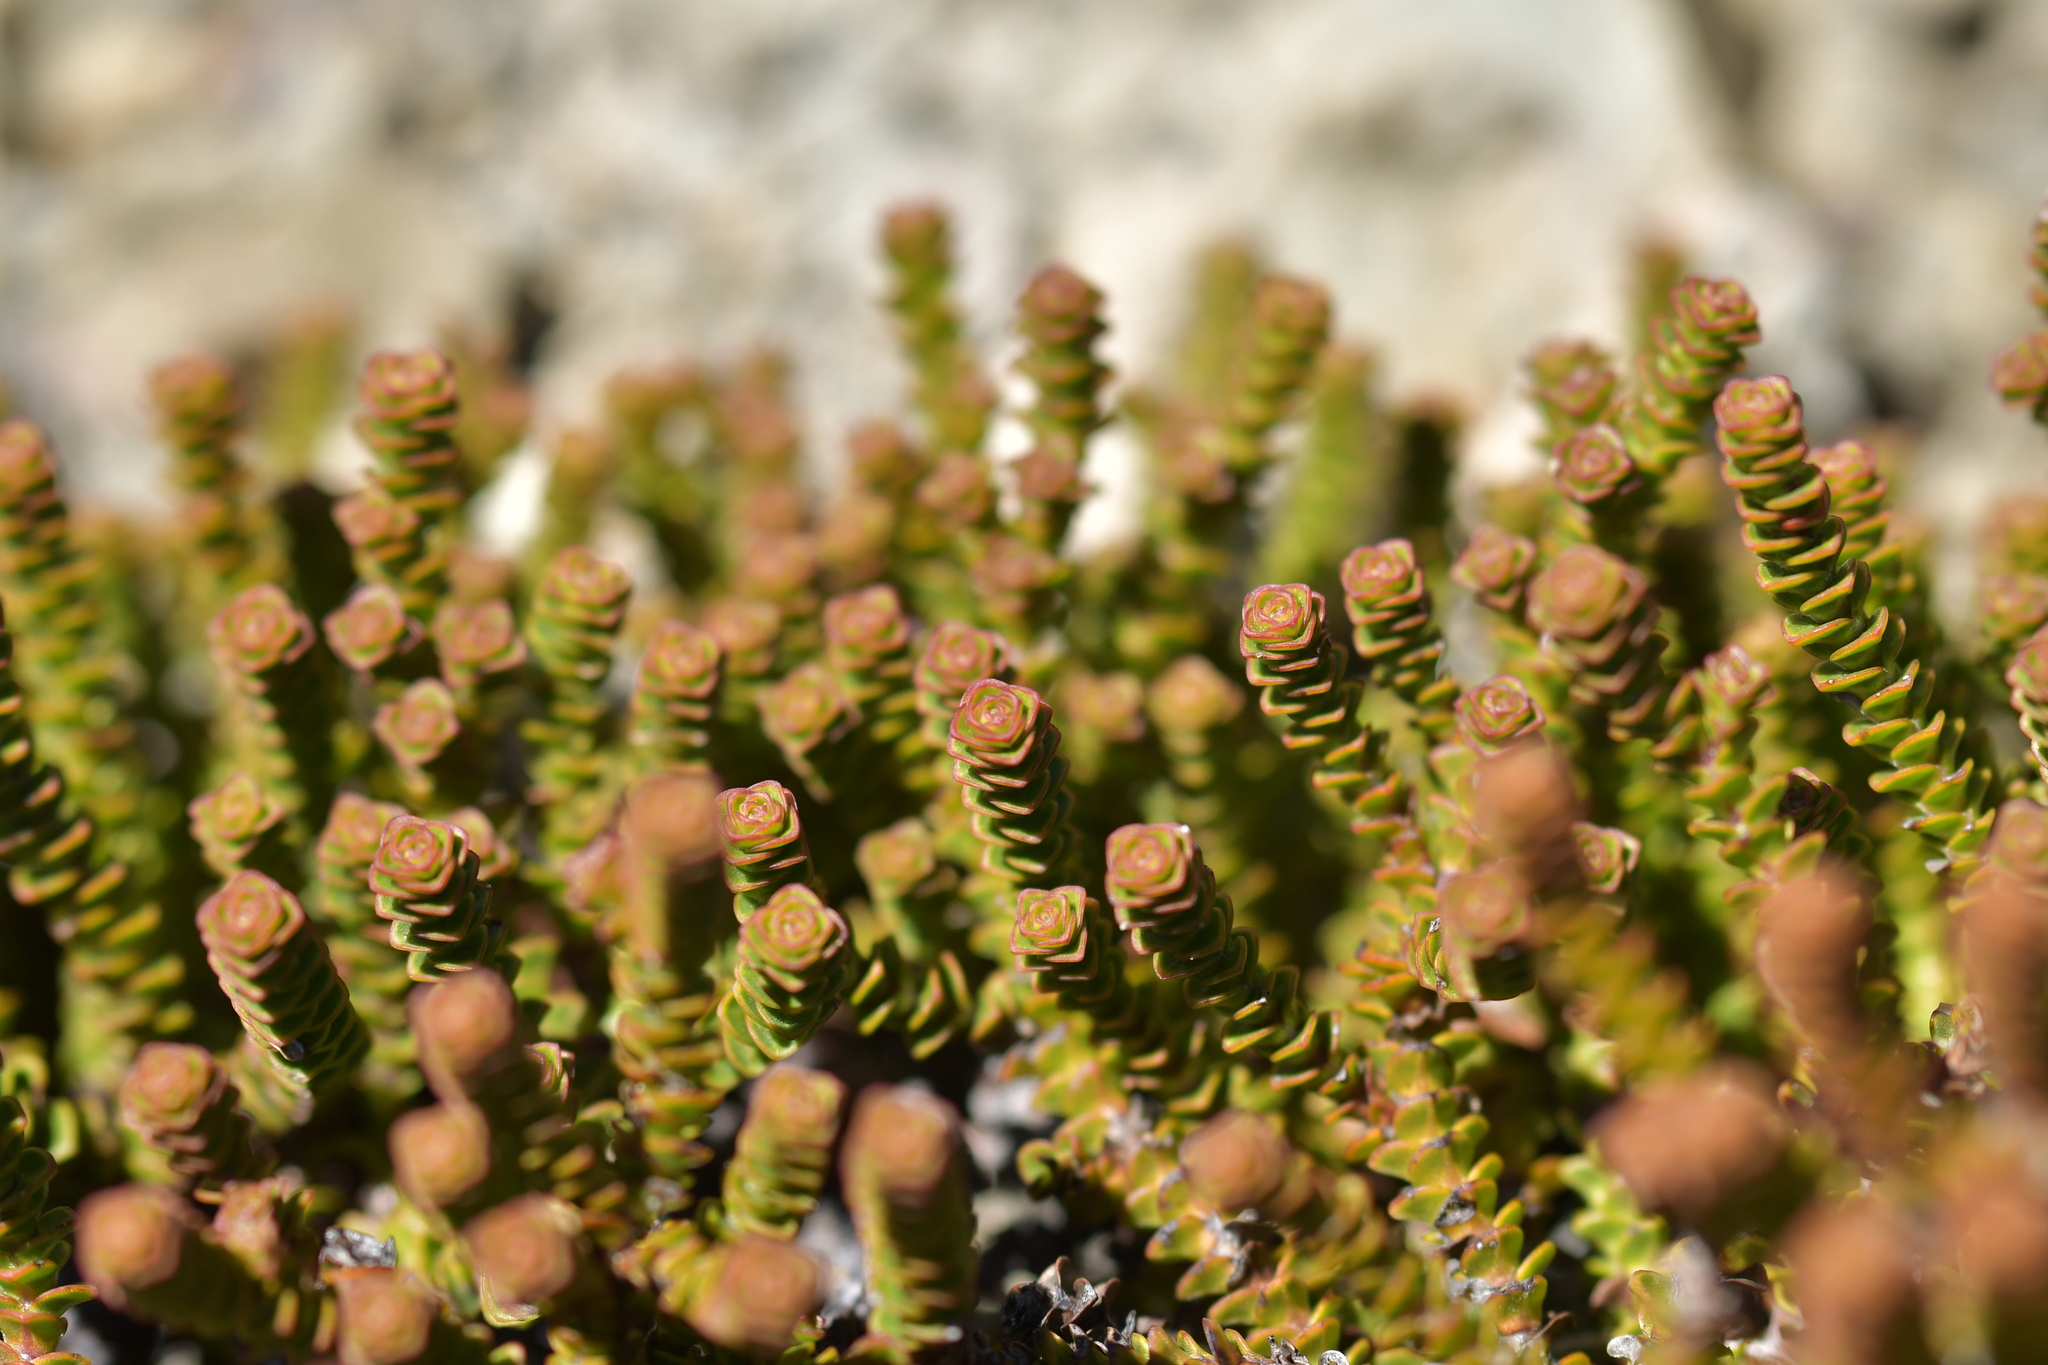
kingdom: Plantae
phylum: Tracheophyta
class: Magnoliopsida
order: Lamiales
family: Plantaginaceae
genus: Veronica
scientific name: Veronica epacridea
